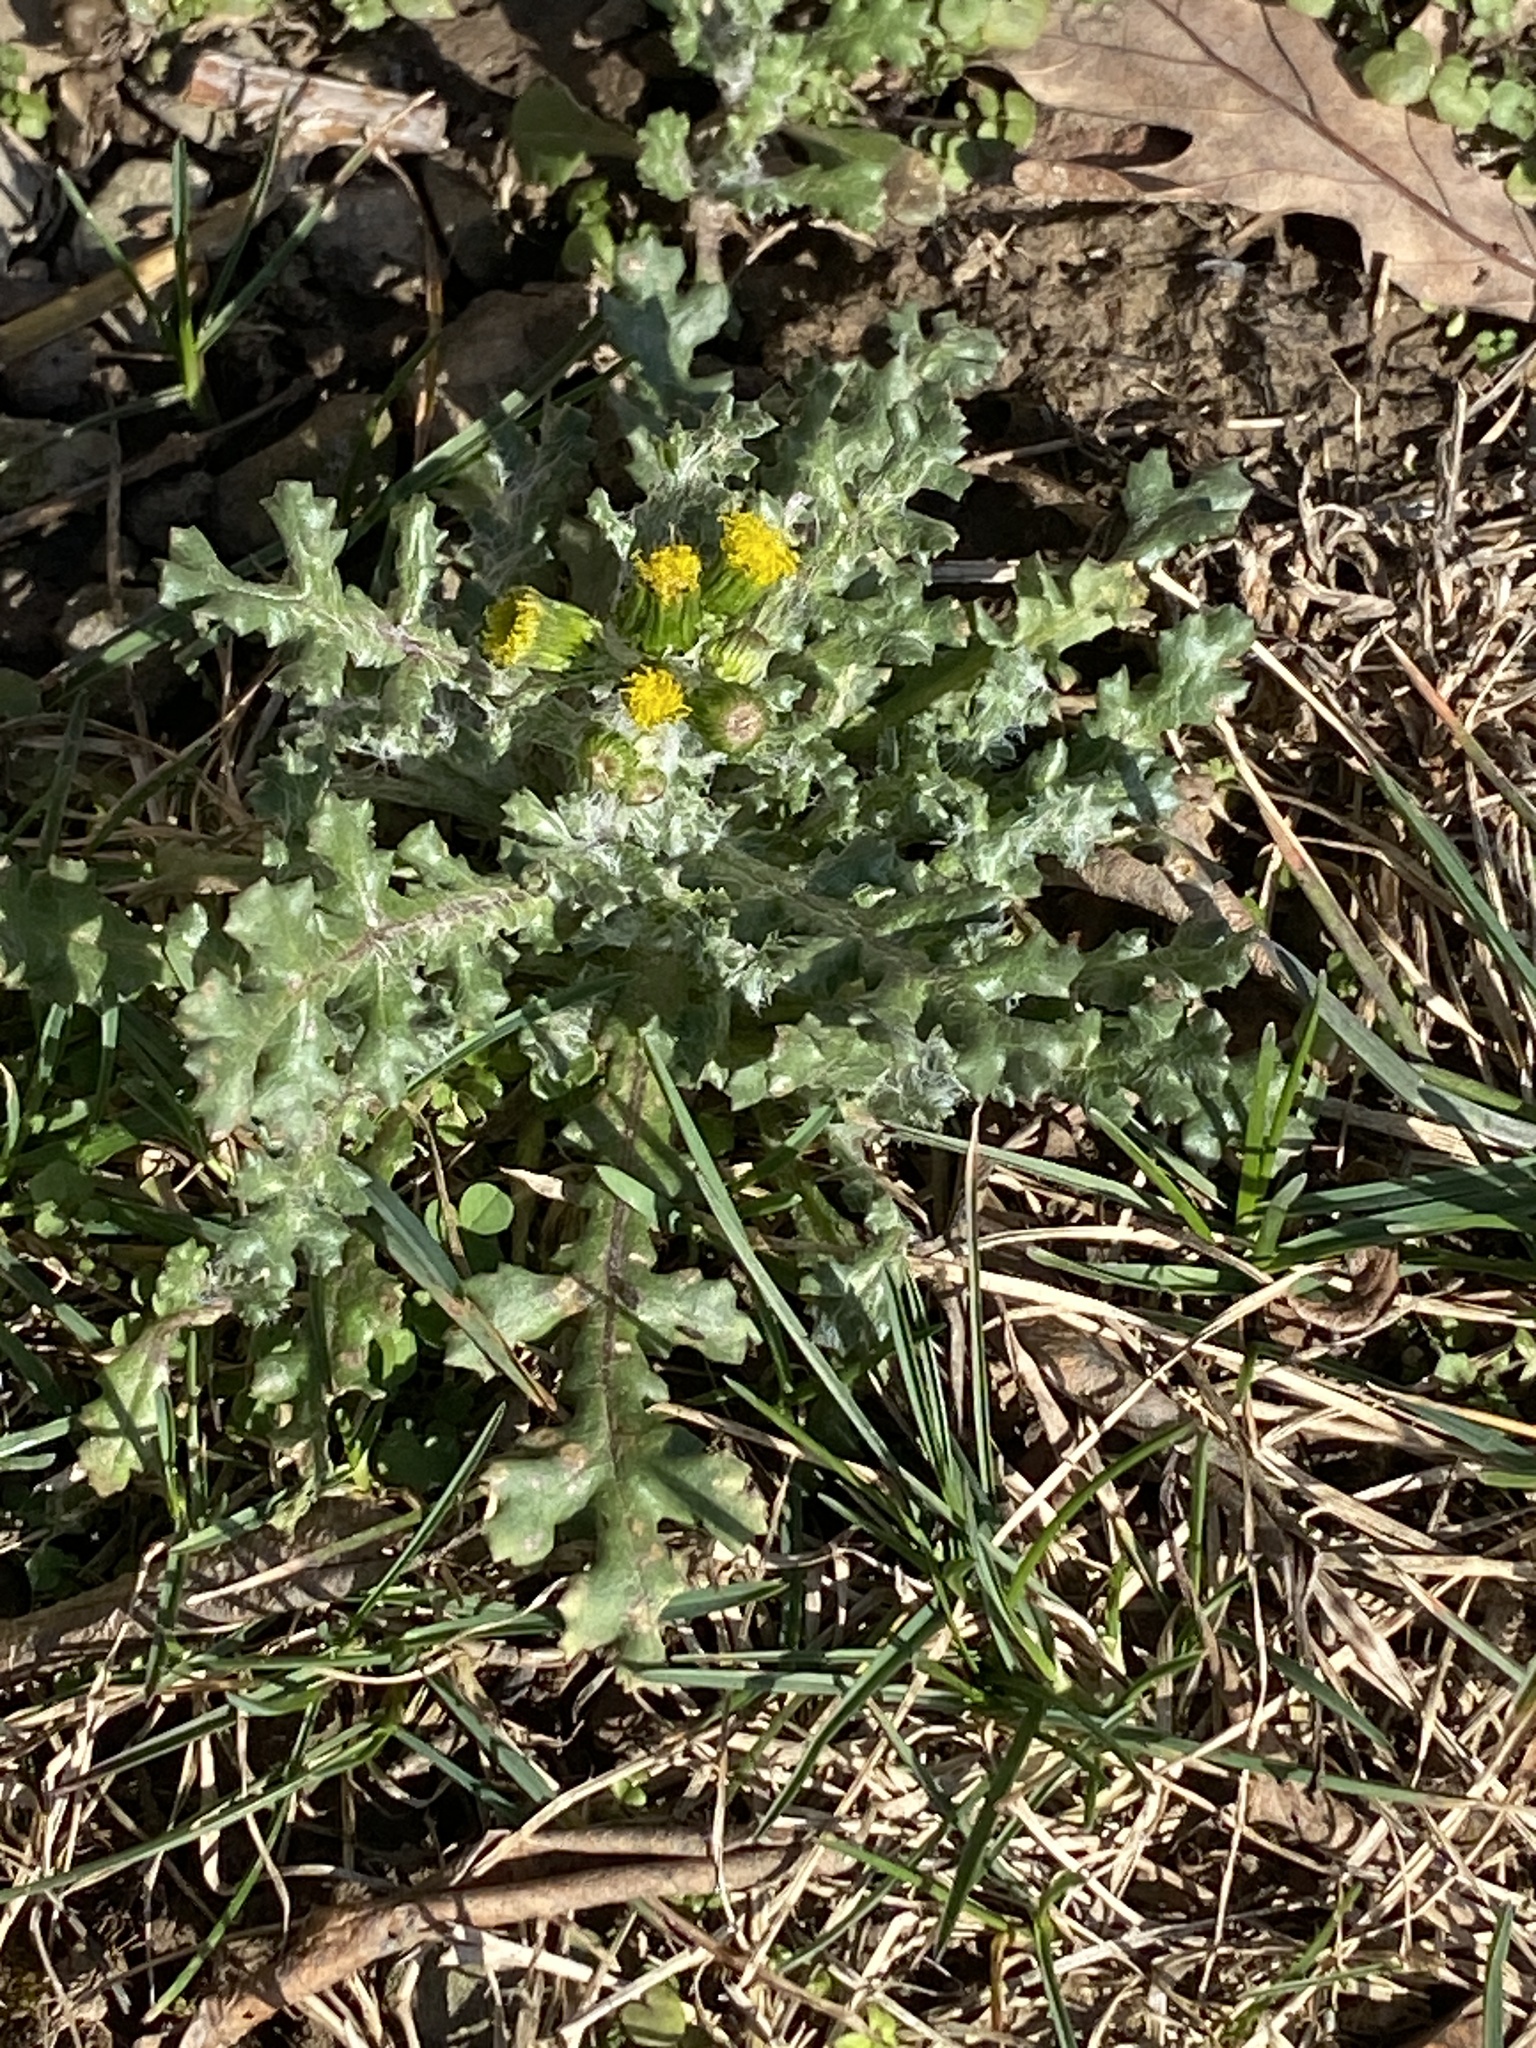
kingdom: Plantae
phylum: Tracheophyta
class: Magnoliopsida
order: Asterales
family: Asteraceae
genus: Senecio
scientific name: Senecio vulgaris
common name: Old-man-in-the-spring
